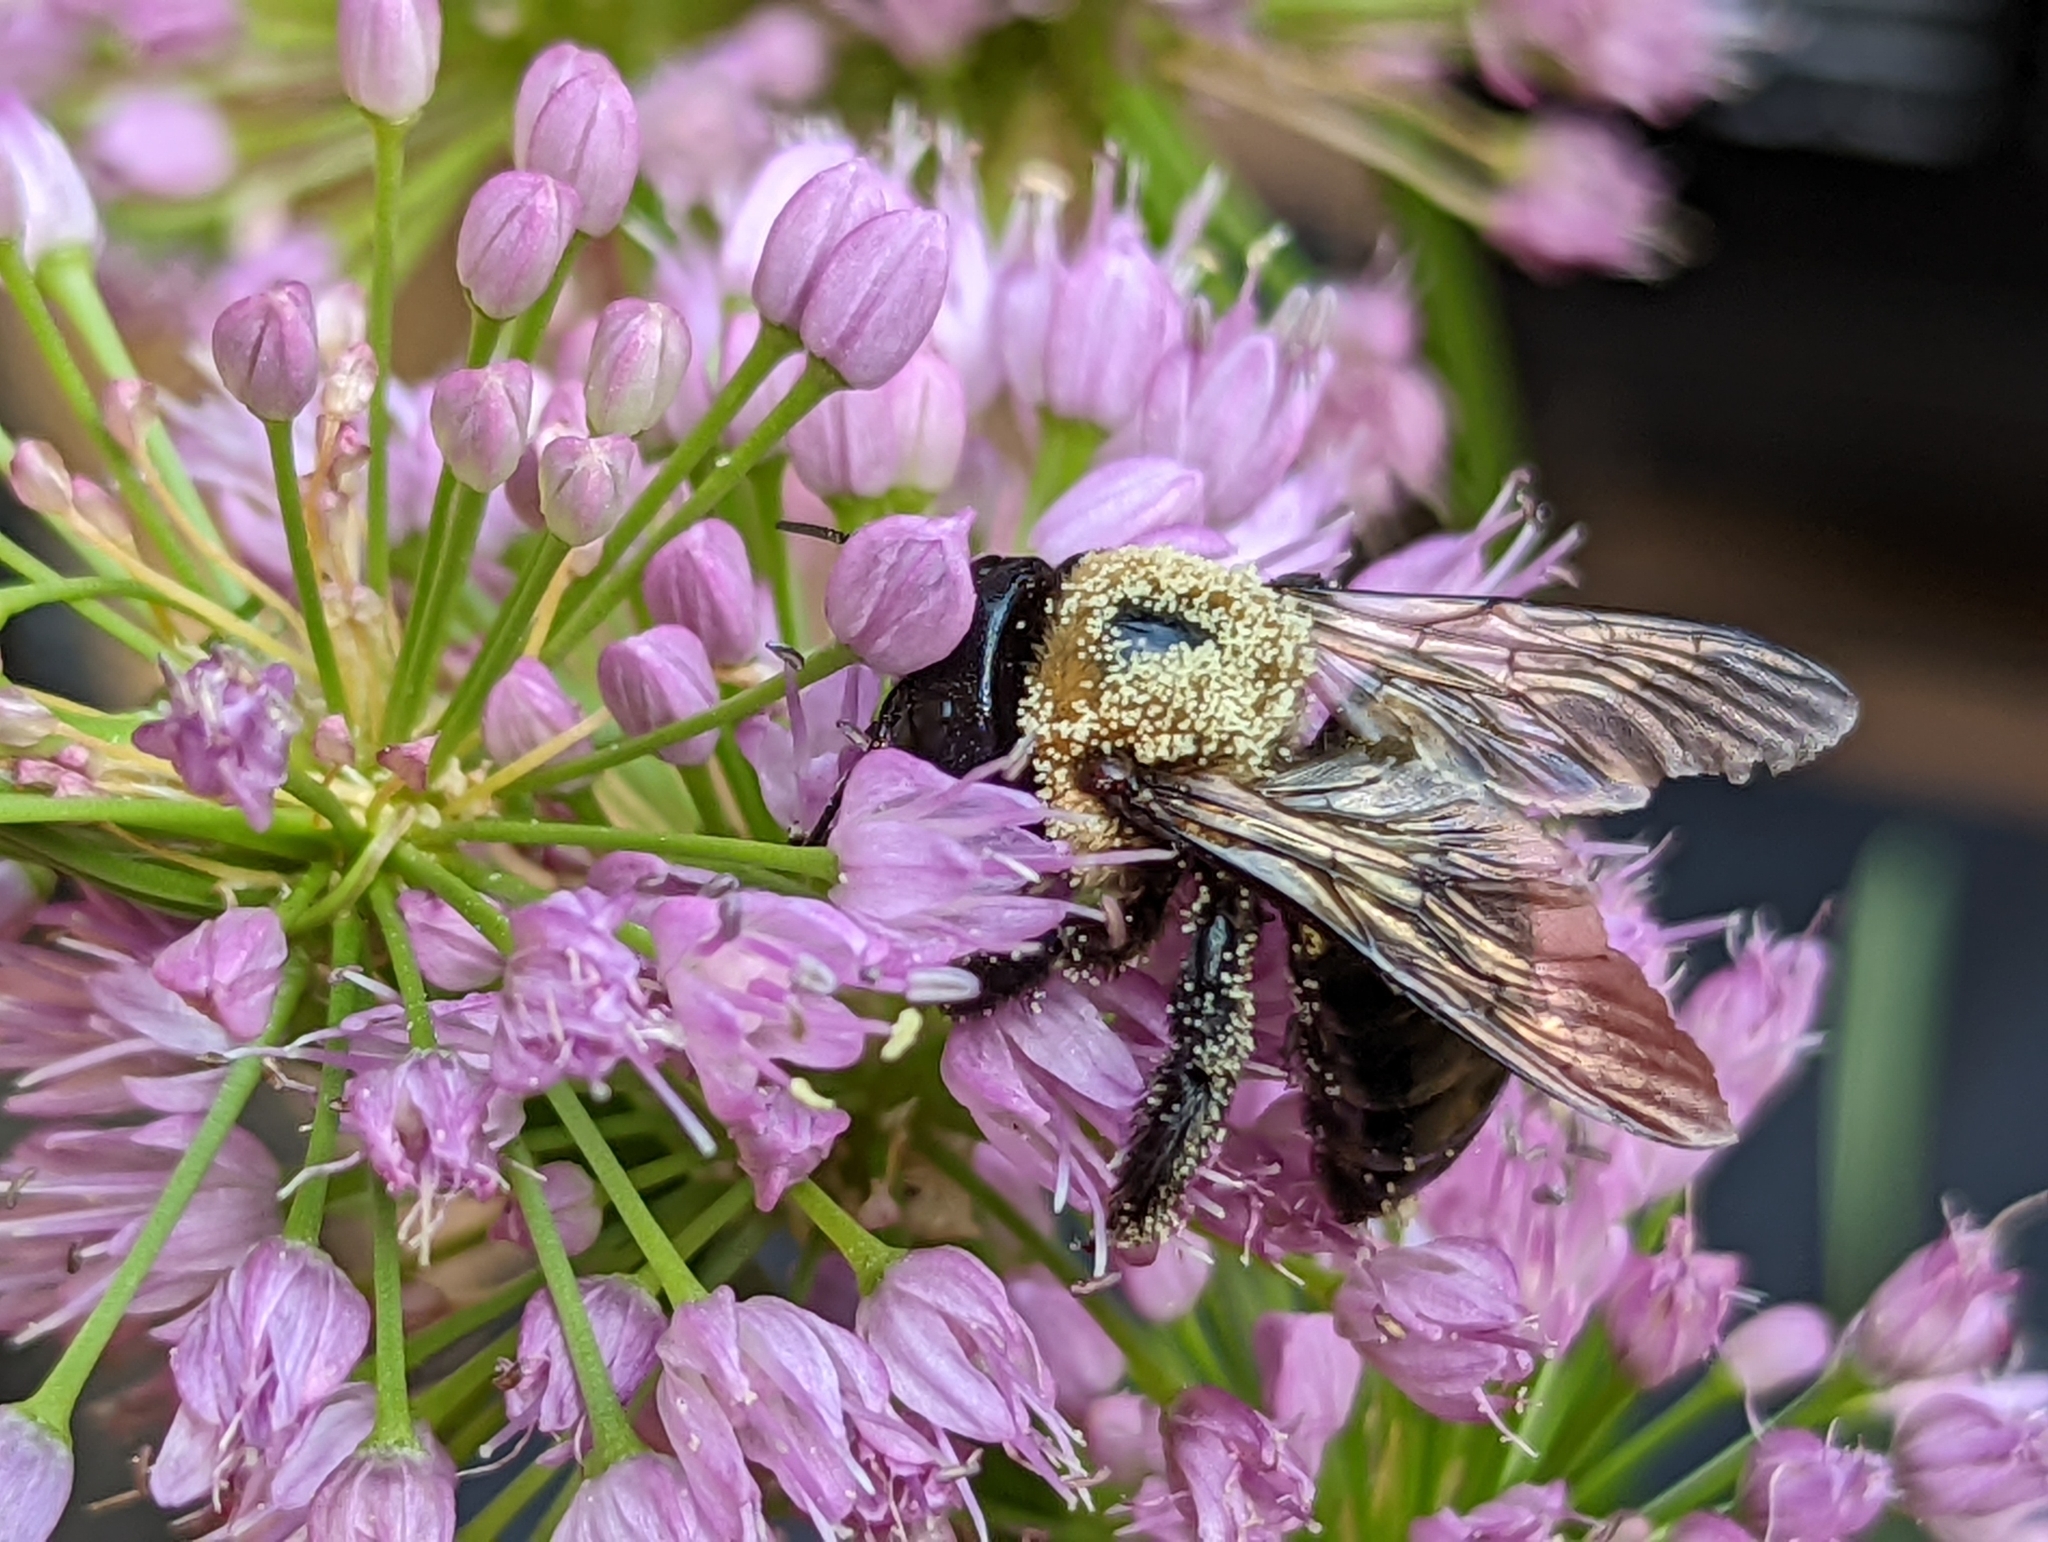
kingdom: Animalia
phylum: Arthropoda
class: Insecta
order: Hymenoptera
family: Apidae
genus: Xylocopa
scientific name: Xylocopa virginica
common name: Carpenter bee
